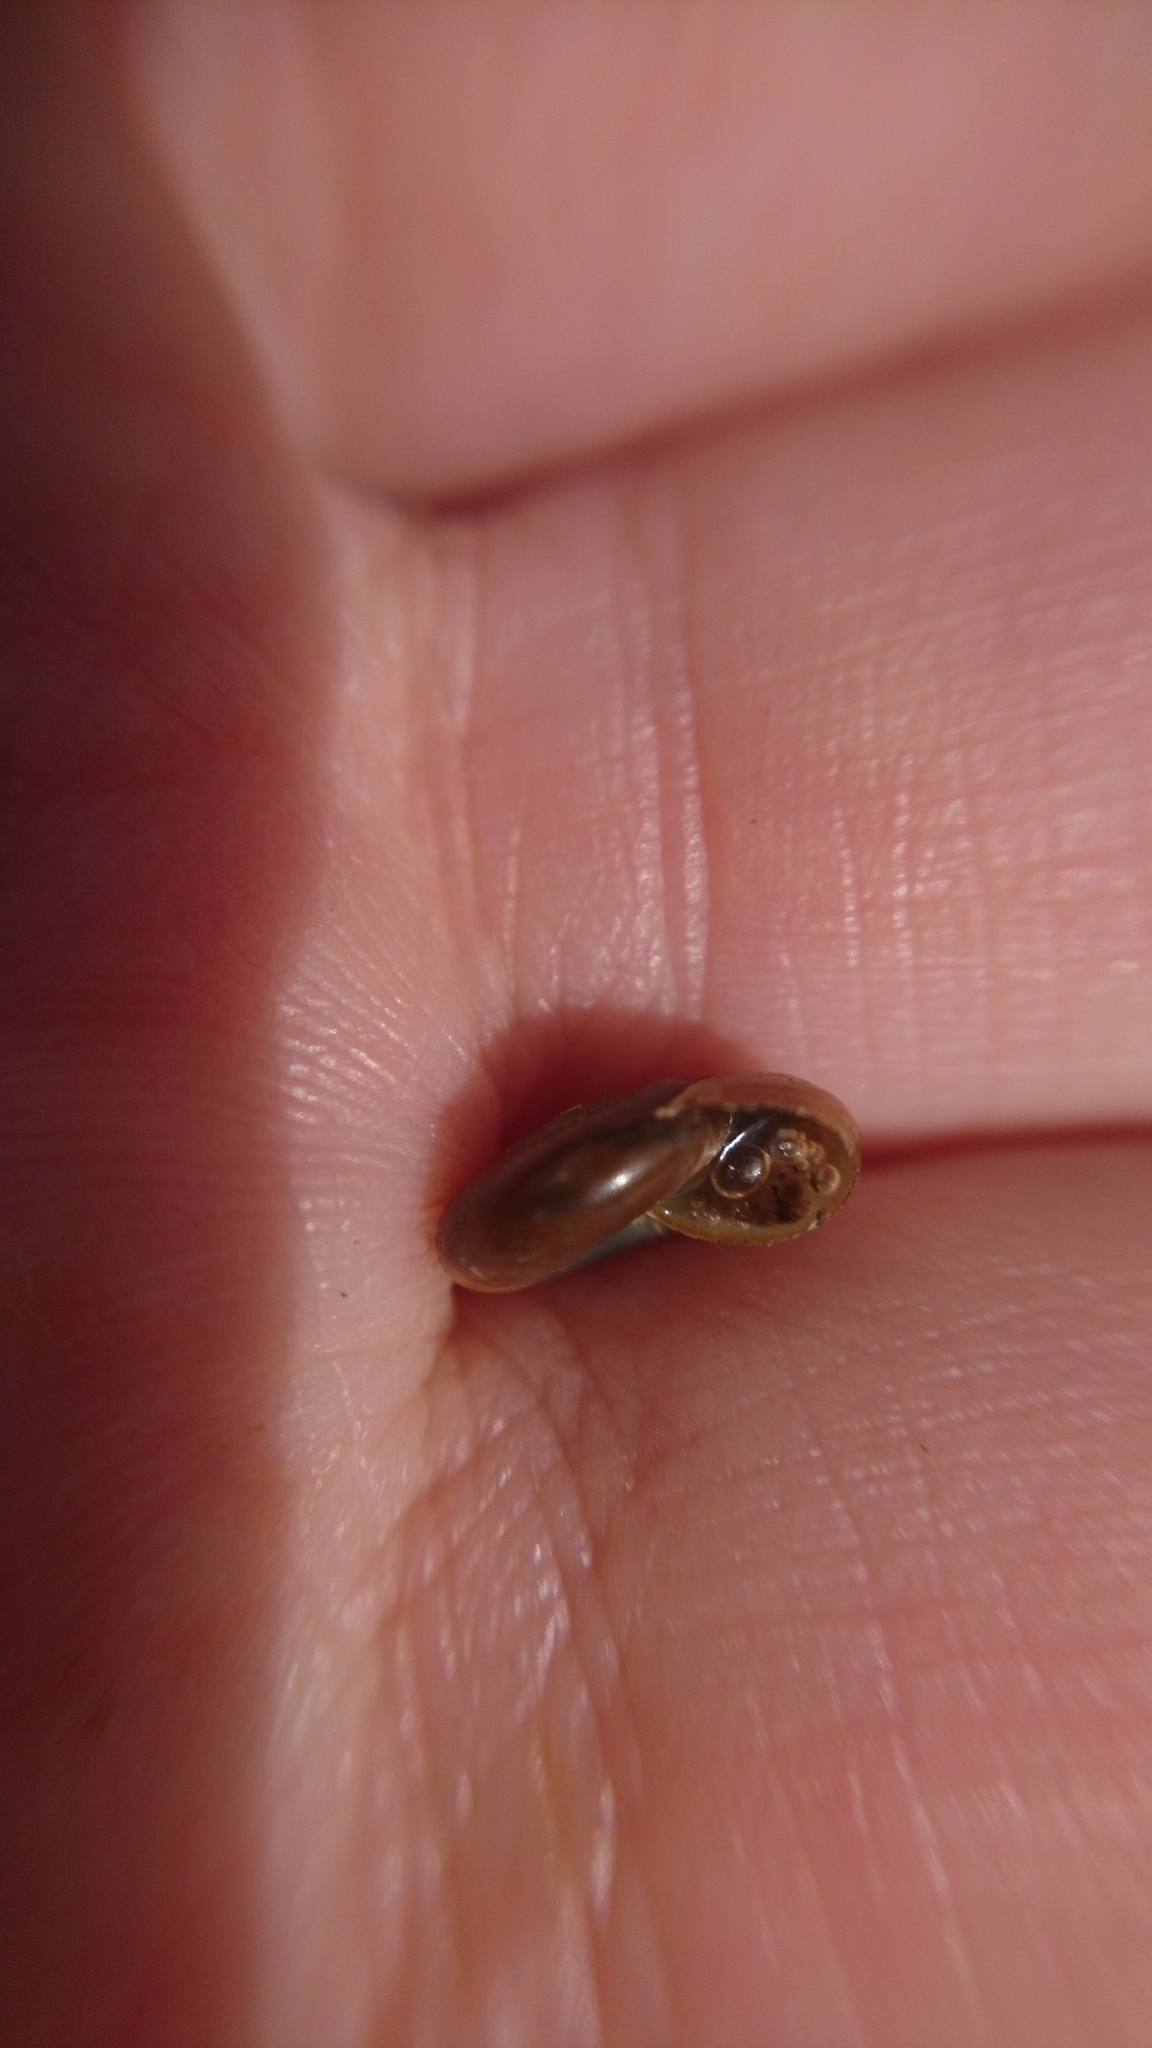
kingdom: Animalia
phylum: Mollusca
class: Gastropoda
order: Stylommatophora
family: Oxychilidae
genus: Oxychilus
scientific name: Oxychilus alliarius
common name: Garlic glass-snail
